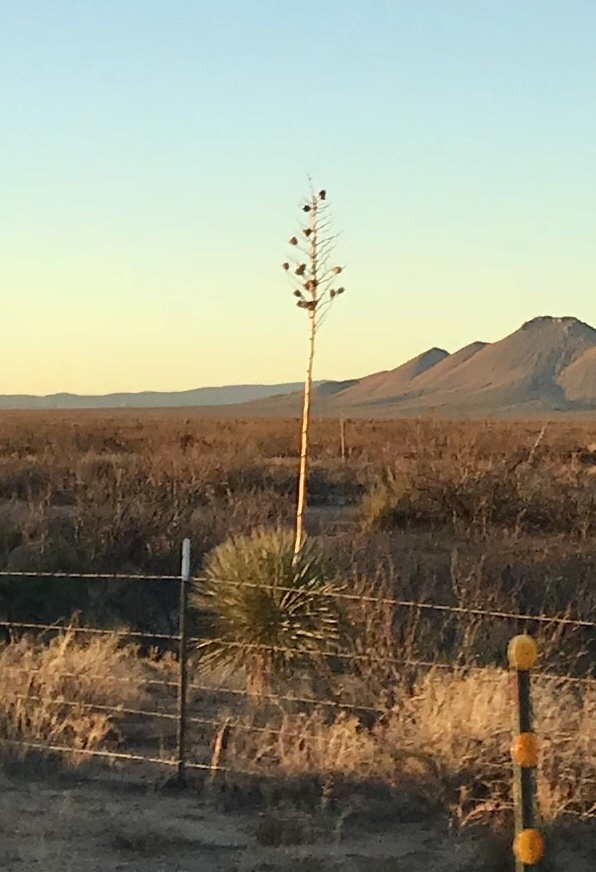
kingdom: Plantae
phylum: Tracheophyta
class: Liliopsida
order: Asparagales
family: Asparagaceae
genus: Yucca
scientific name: Yucca elata
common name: Palmella
